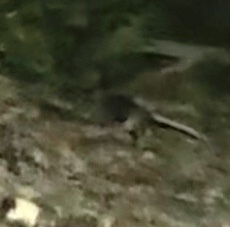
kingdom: Animalia
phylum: Chordata
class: Mammalia
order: Didelphimorphia
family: Didelphidae
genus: Didelphis
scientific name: Didelphis virginiana
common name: Virginia opossum
